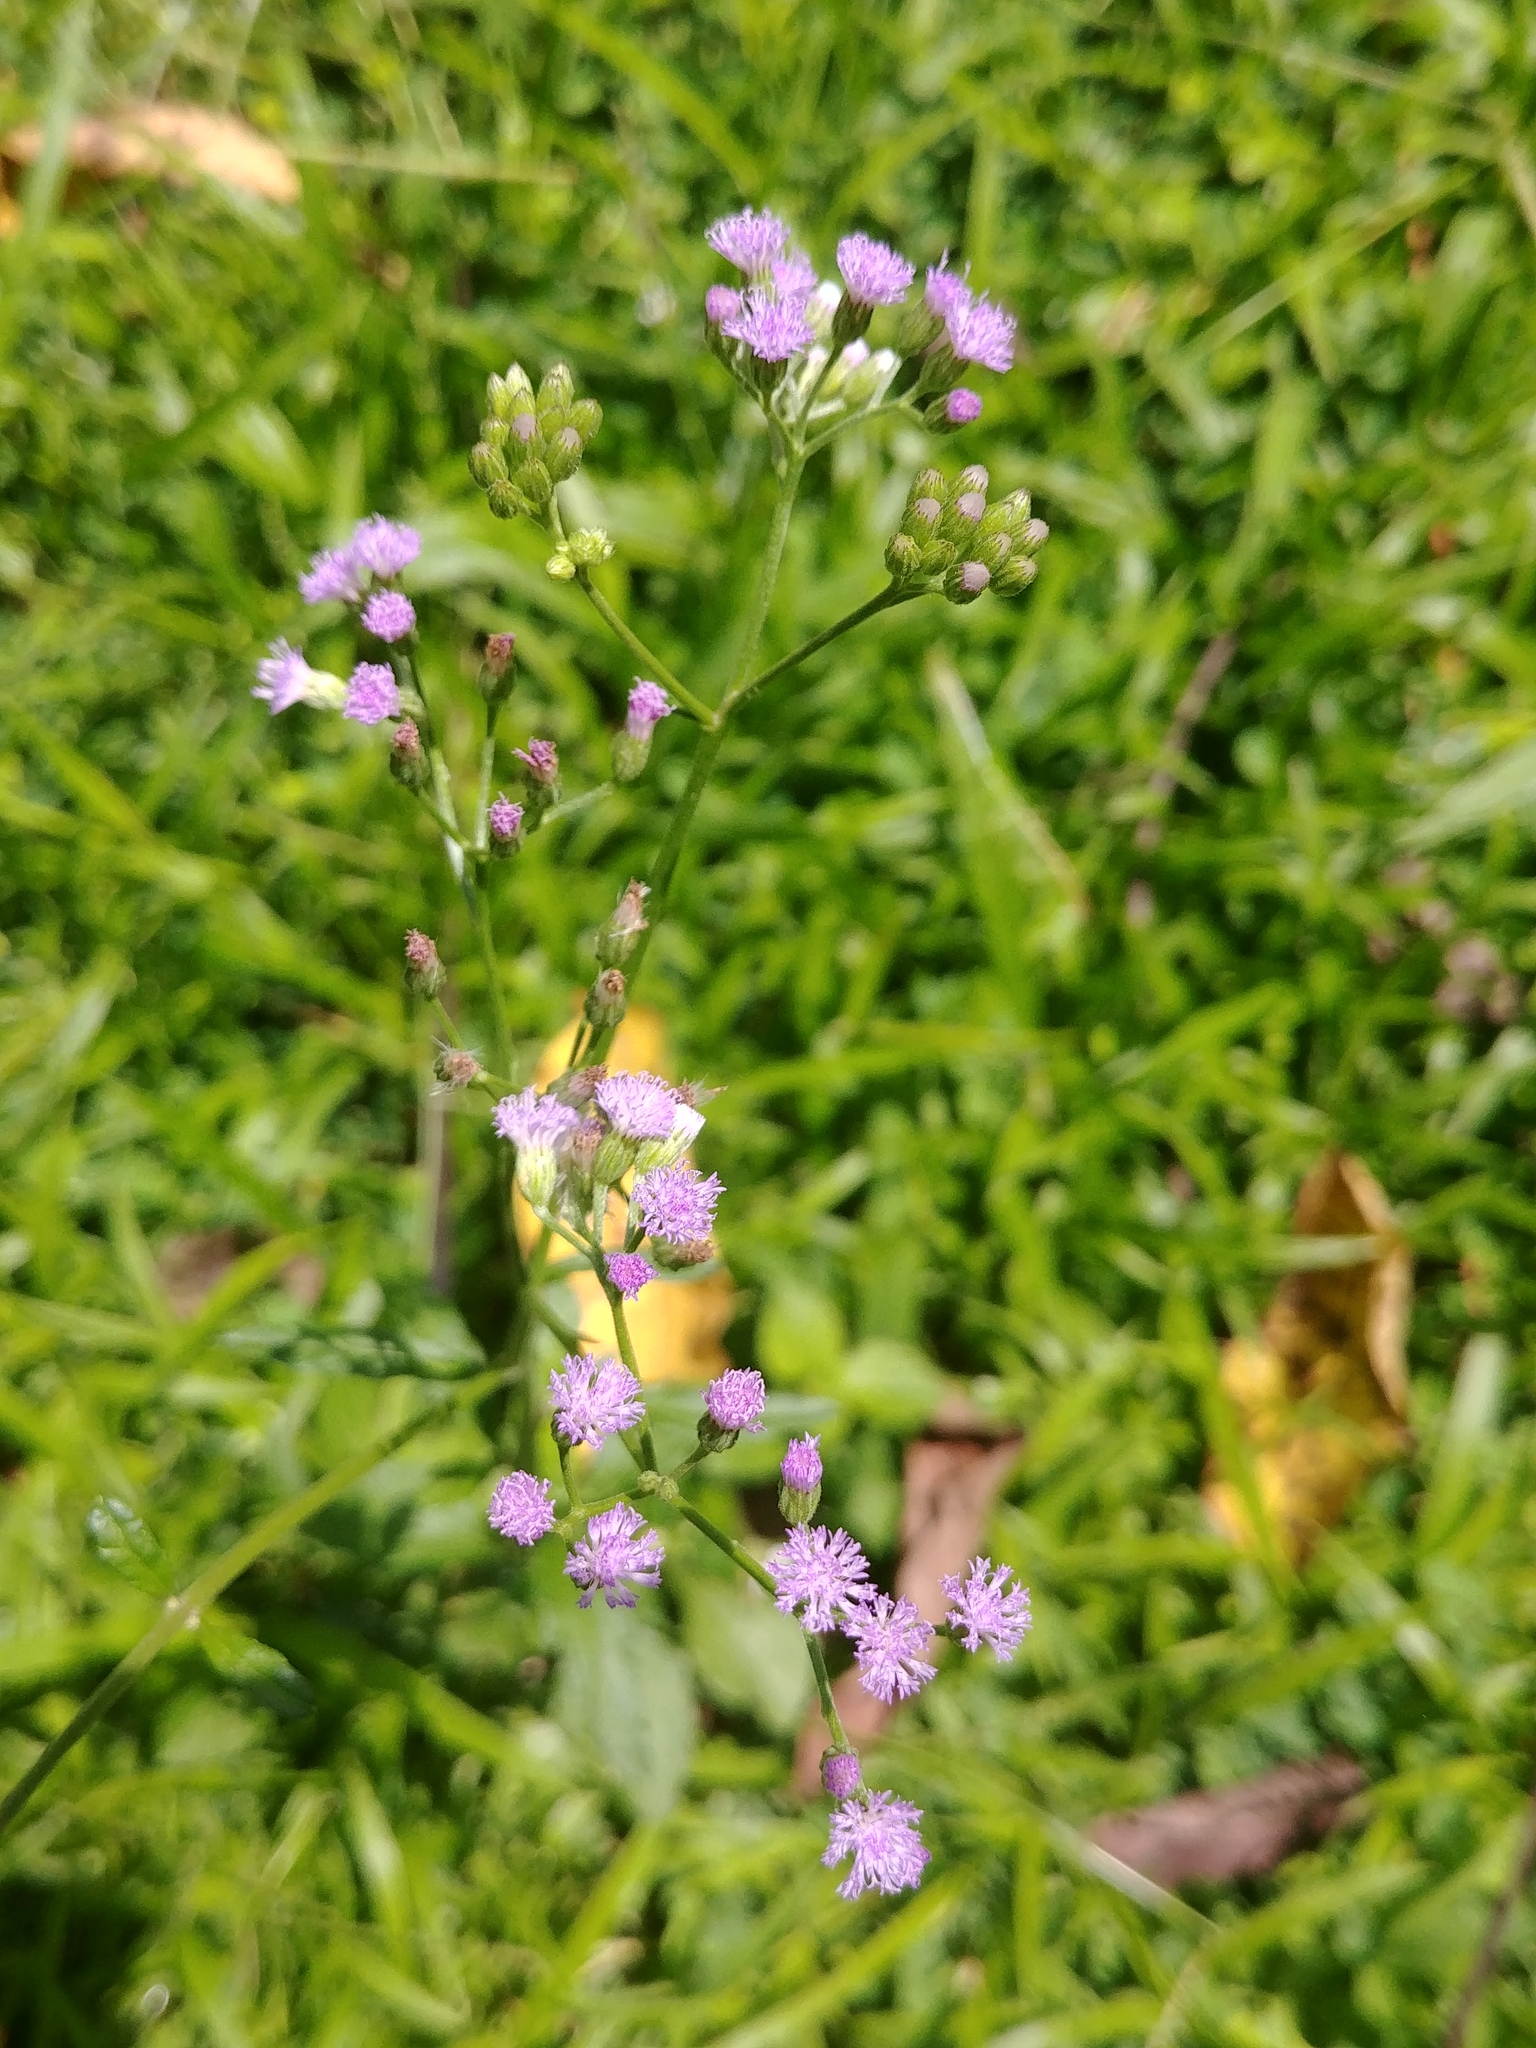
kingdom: Plantae
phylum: Tracheophyta
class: Magnoliopsida
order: Asterales
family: Asteraceae
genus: Cyanthillium
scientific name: Cyanthillium cinereum
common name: Little ironweed
